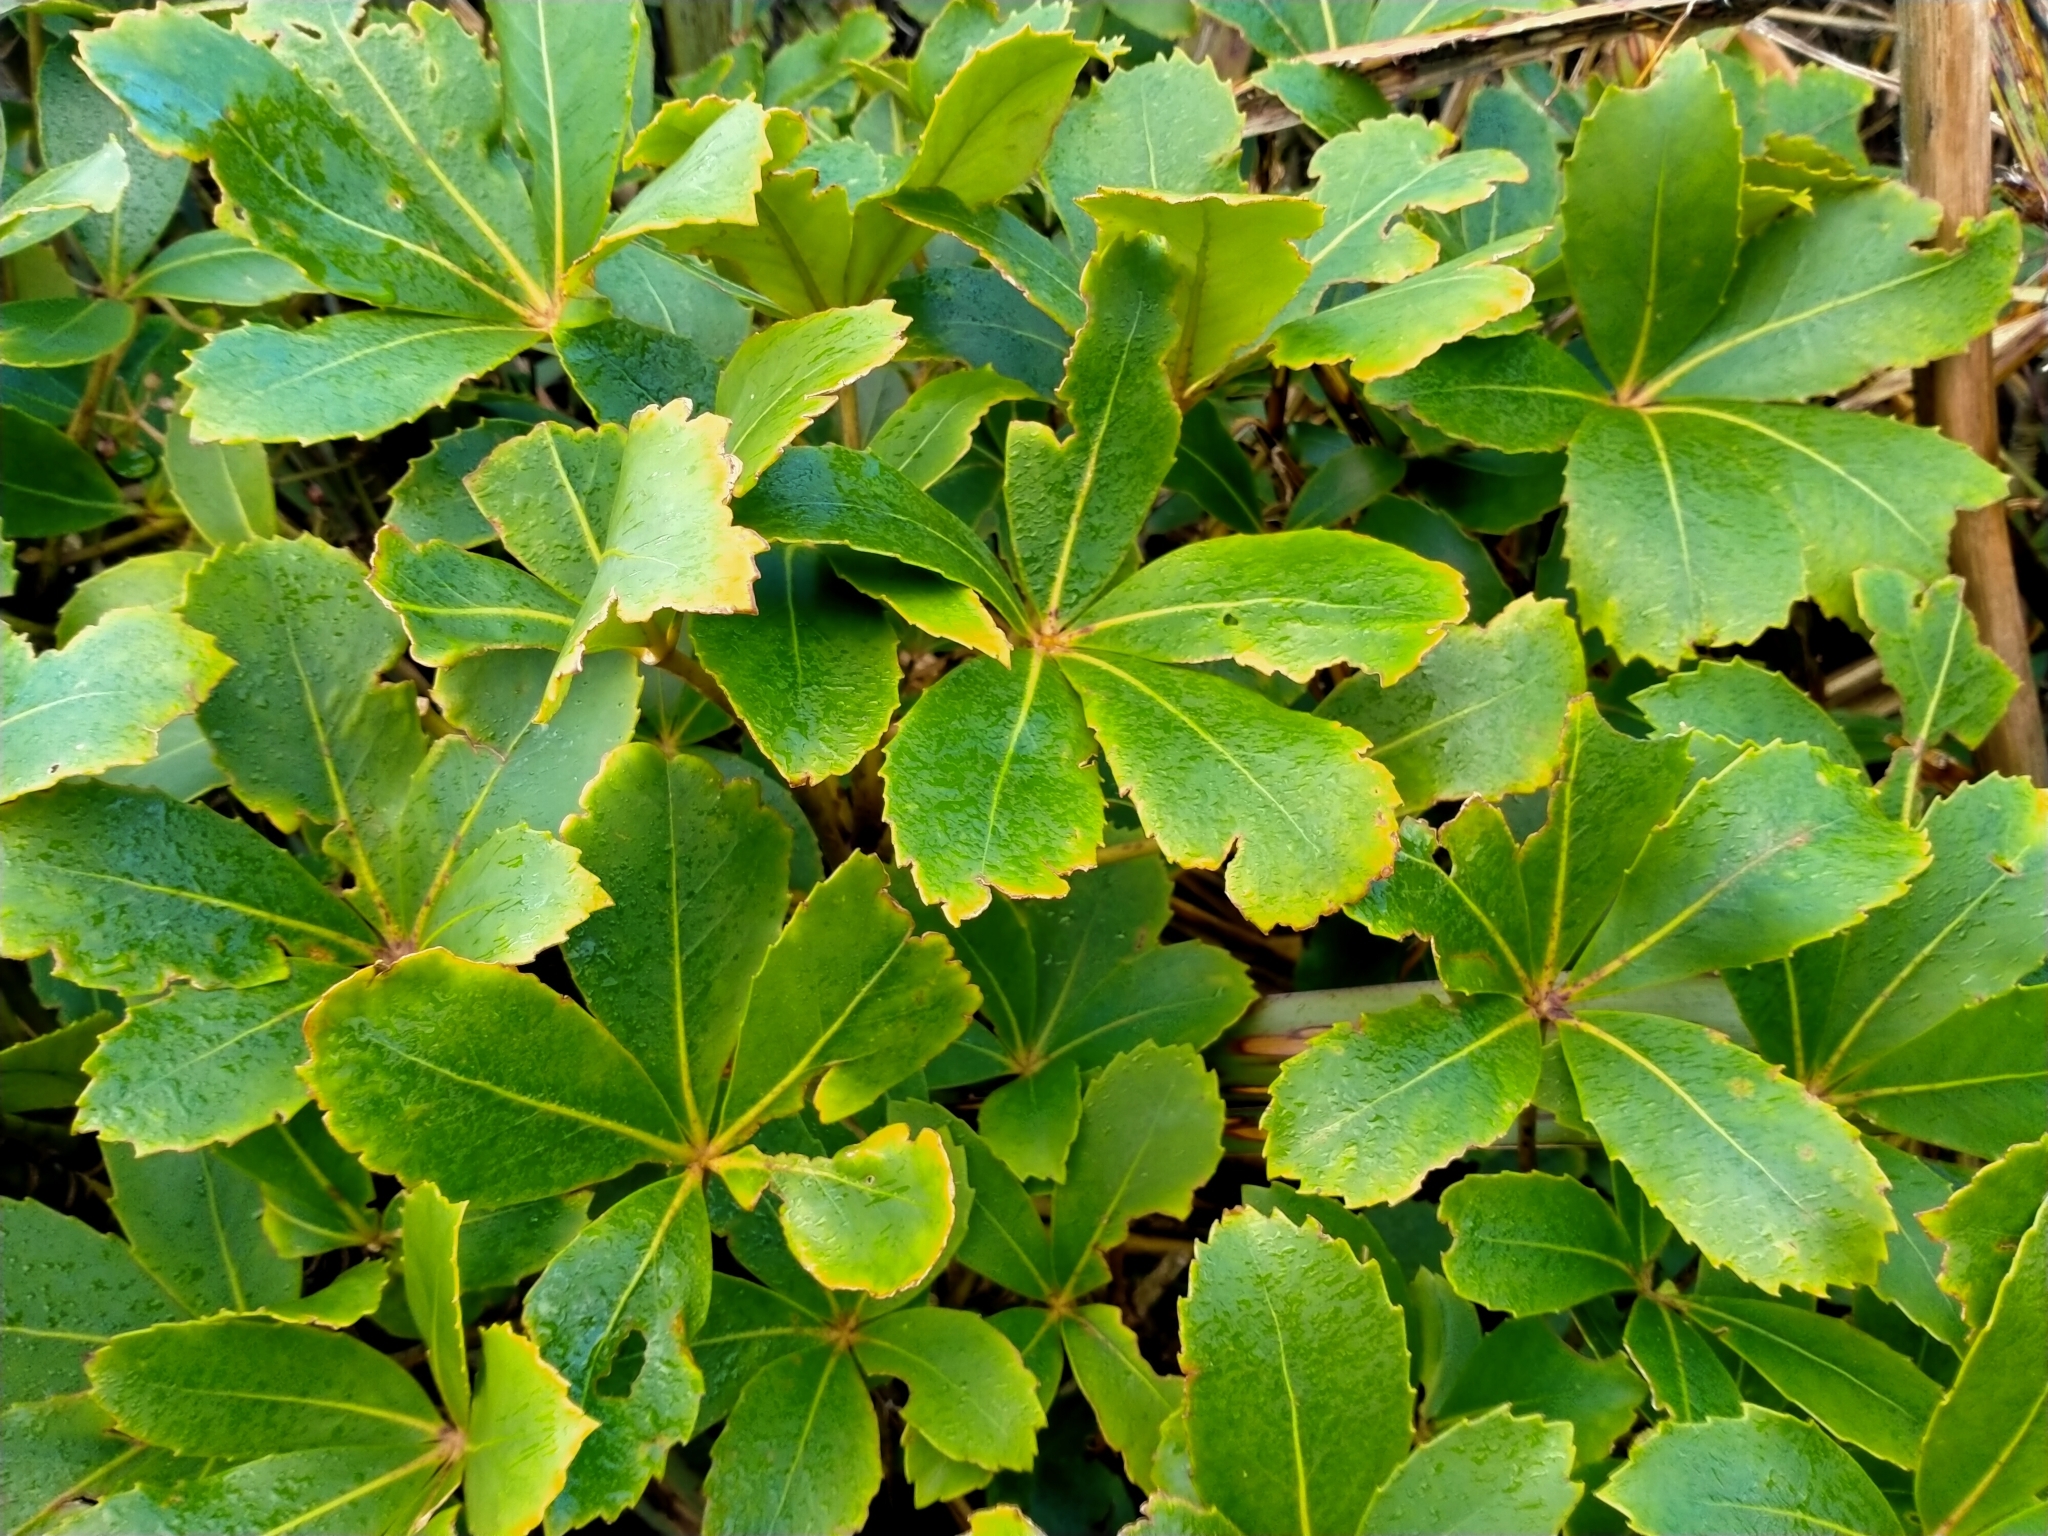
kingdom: Plantae
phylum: Tracheophyta
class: Magnoliopsida
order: Apiales
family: Araliaceae
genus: Neopanax
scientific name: Neopanax colensoi
